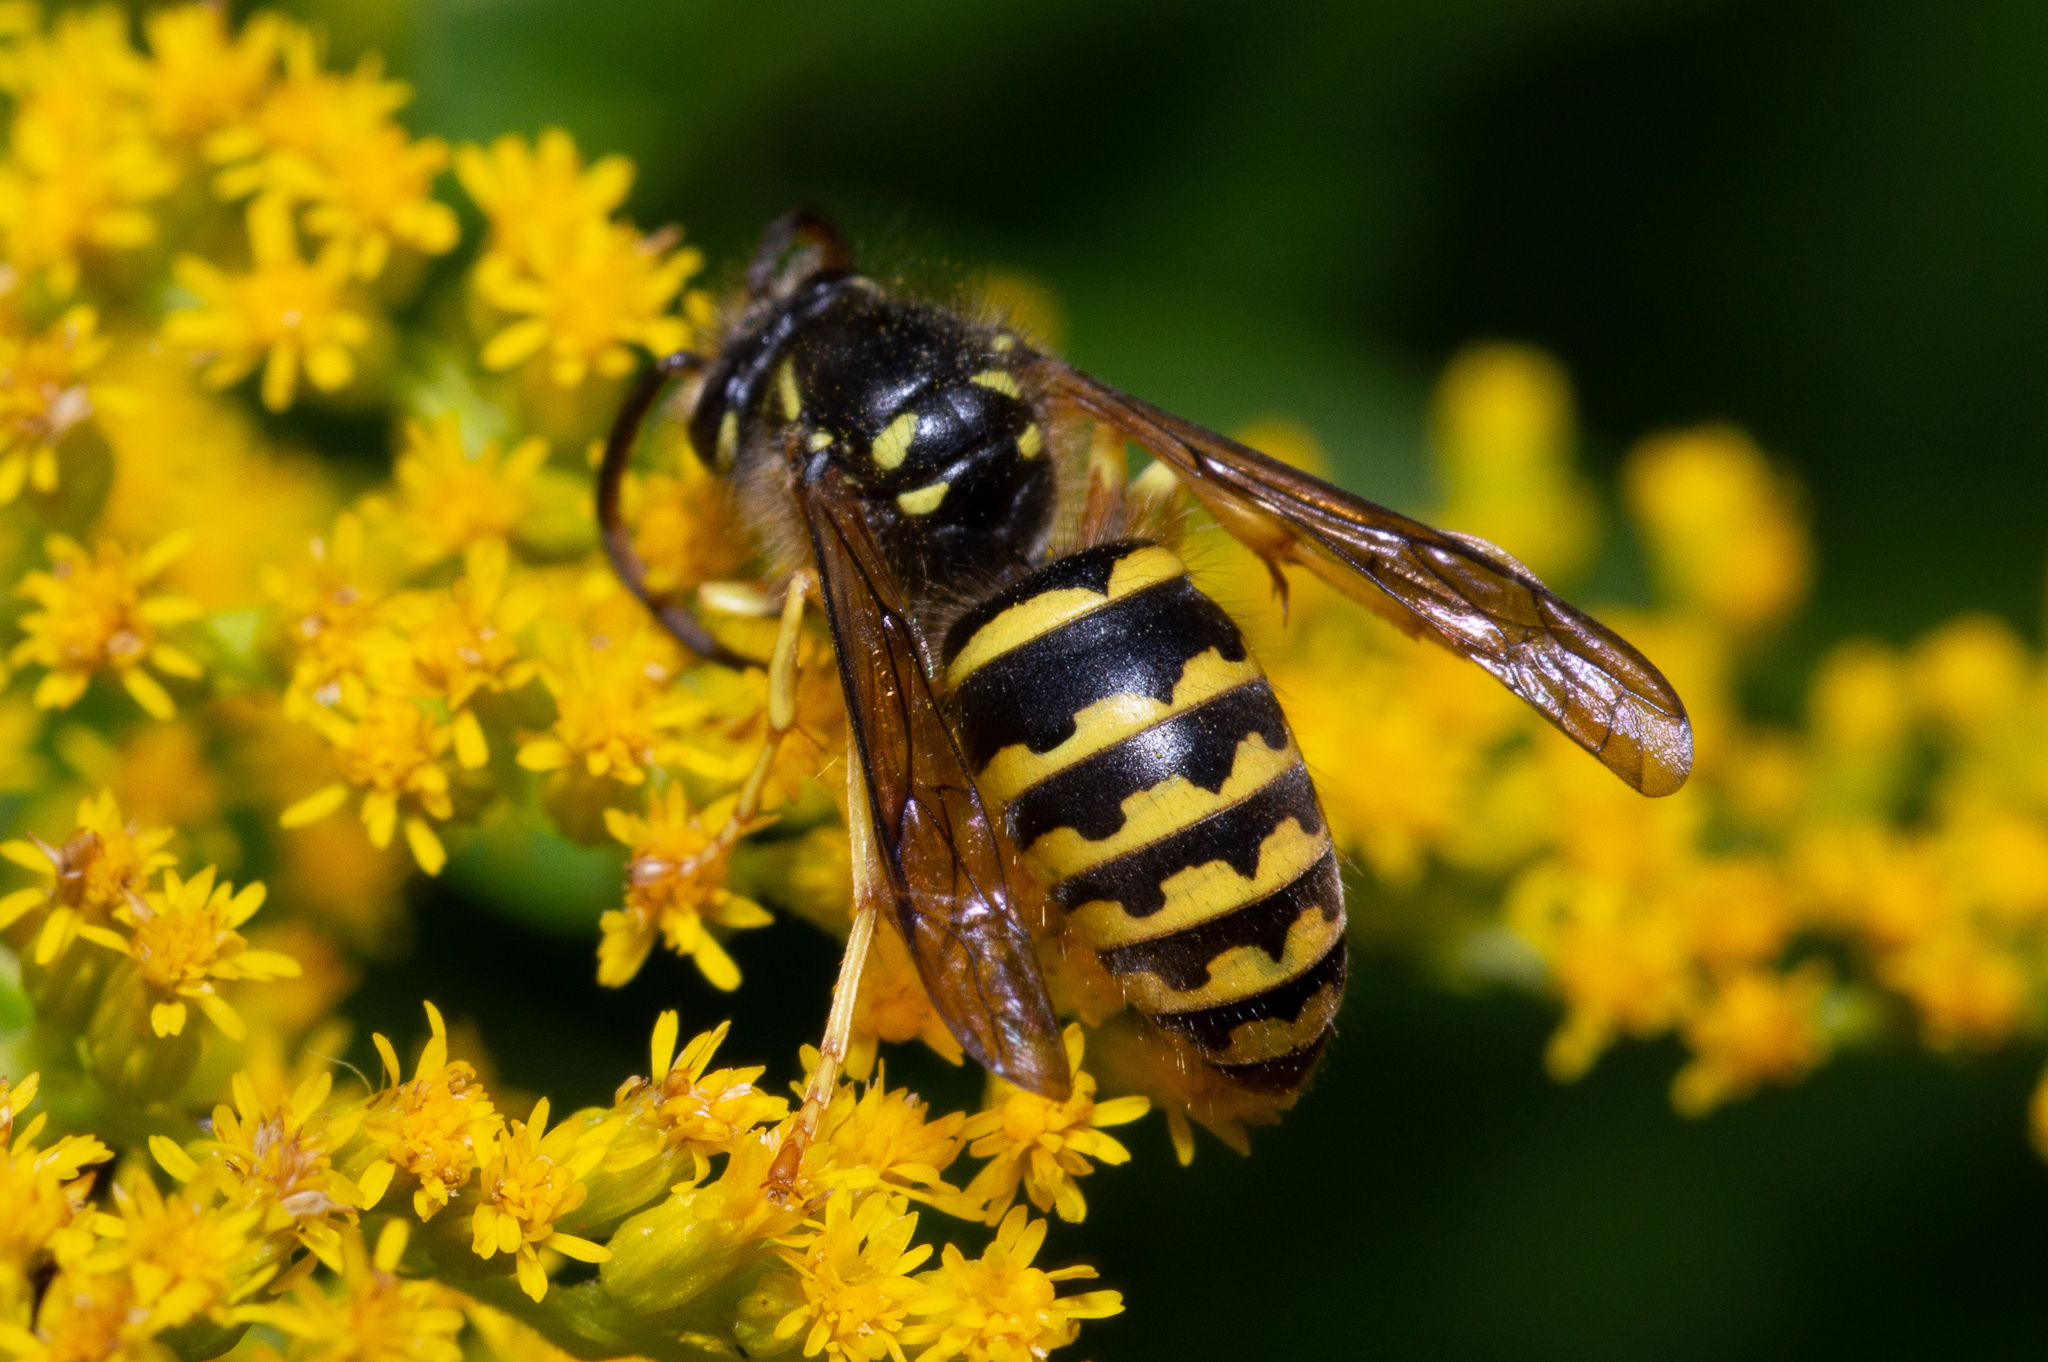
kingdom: Animalia
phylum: Arthropoda
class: Insecta
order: Hymenoptera
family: Vespidae
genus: Dolichovespula
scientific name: Dolichovespula arenaria
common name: Aerial yellowjacket
